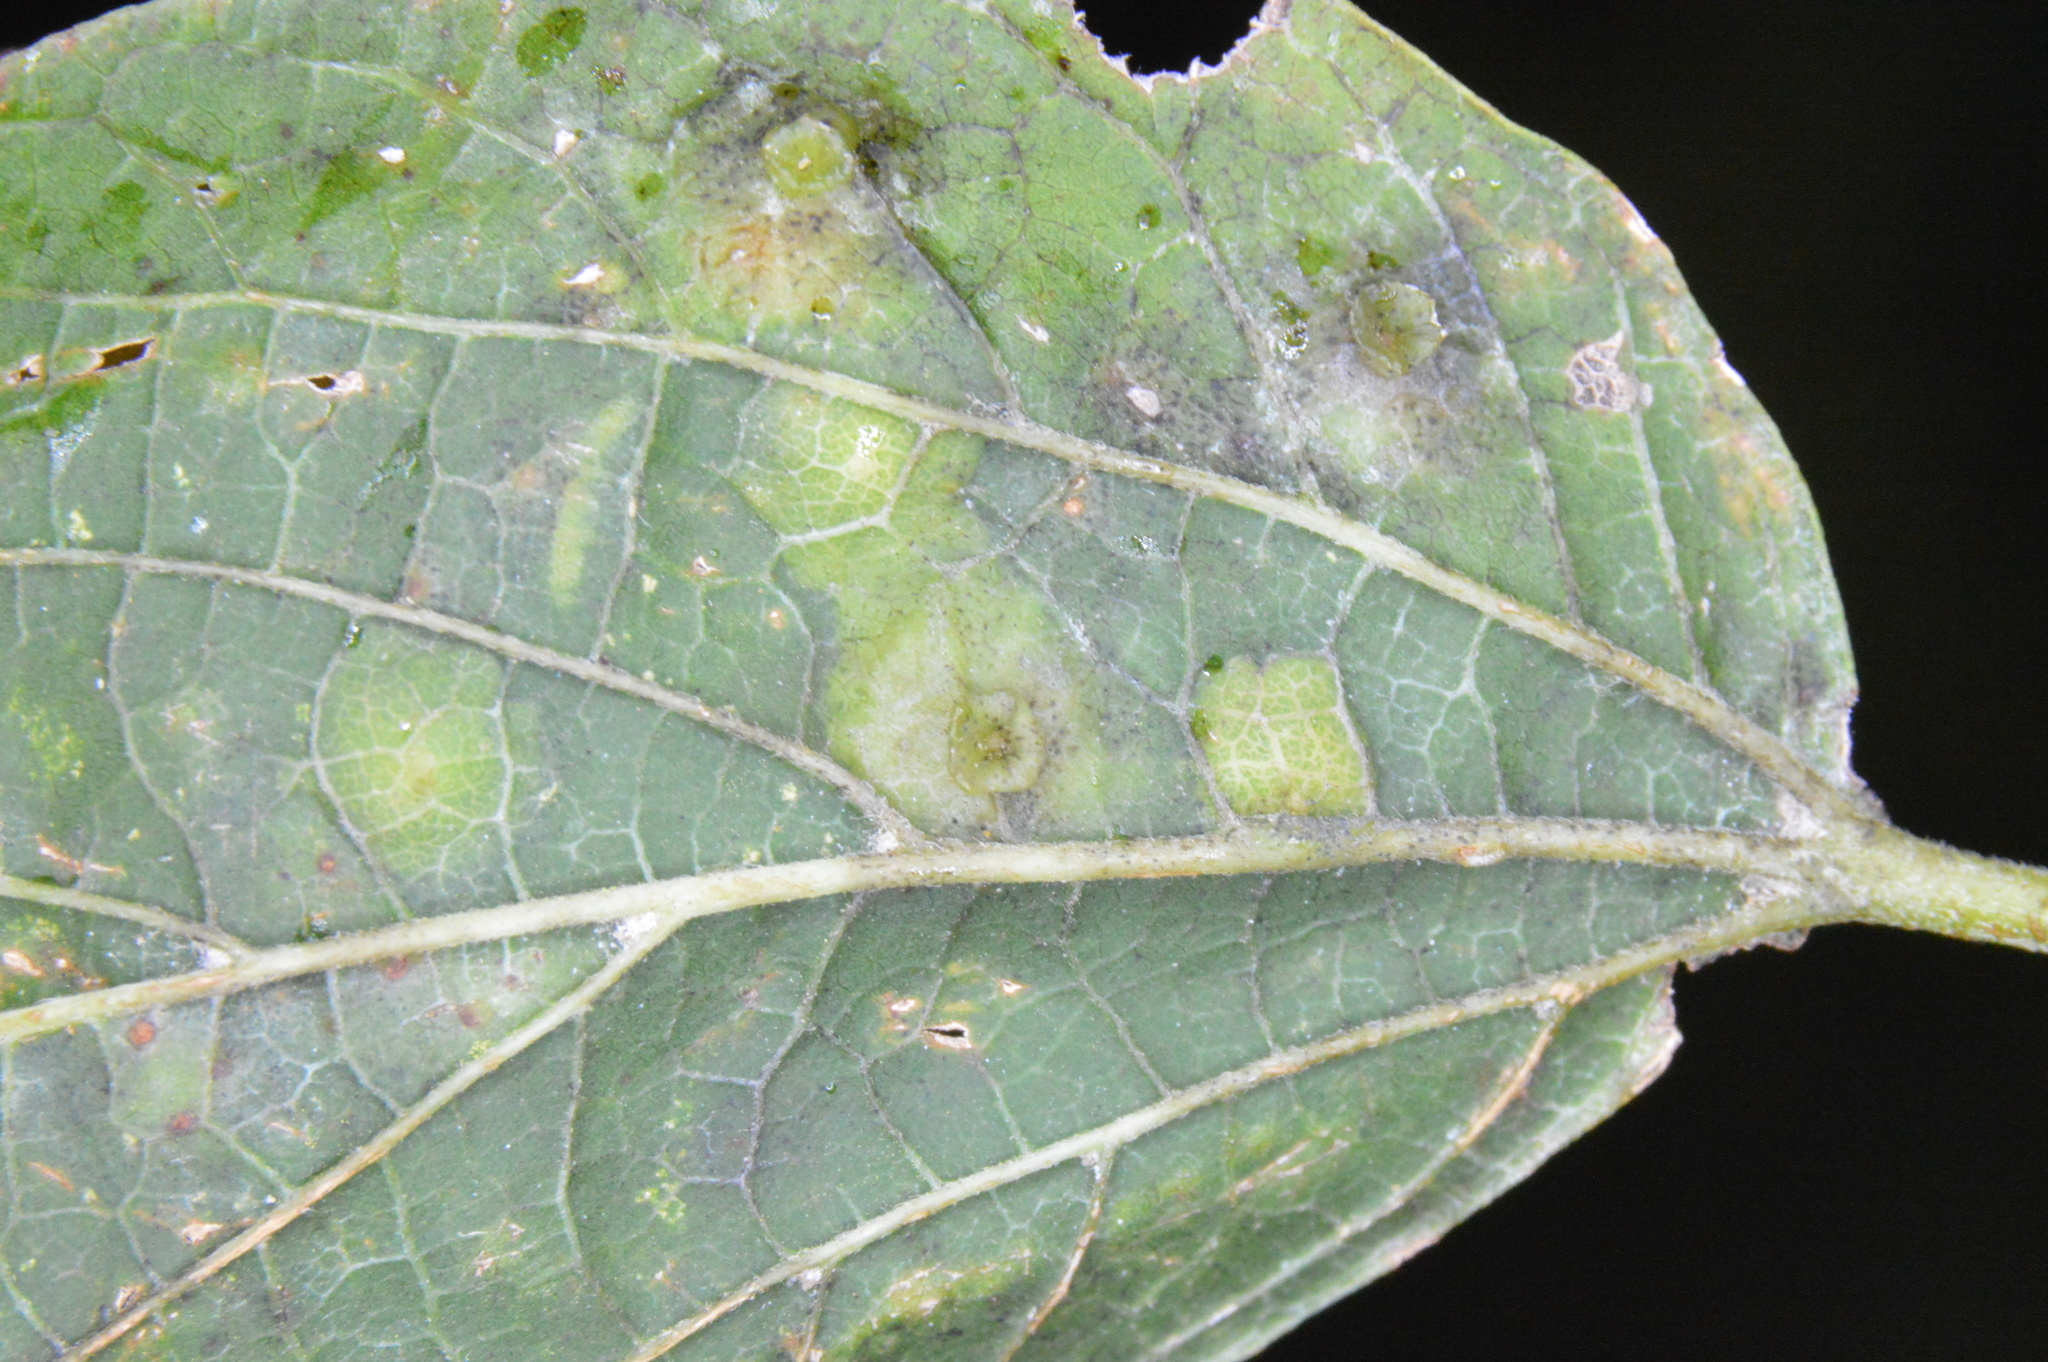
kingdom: Animalia
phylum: Arthropoda
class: Insecta
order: Hemiptera
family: Aphalaridae
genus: Pachypsylla
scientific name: Pachypsylla celtidisasterisca
